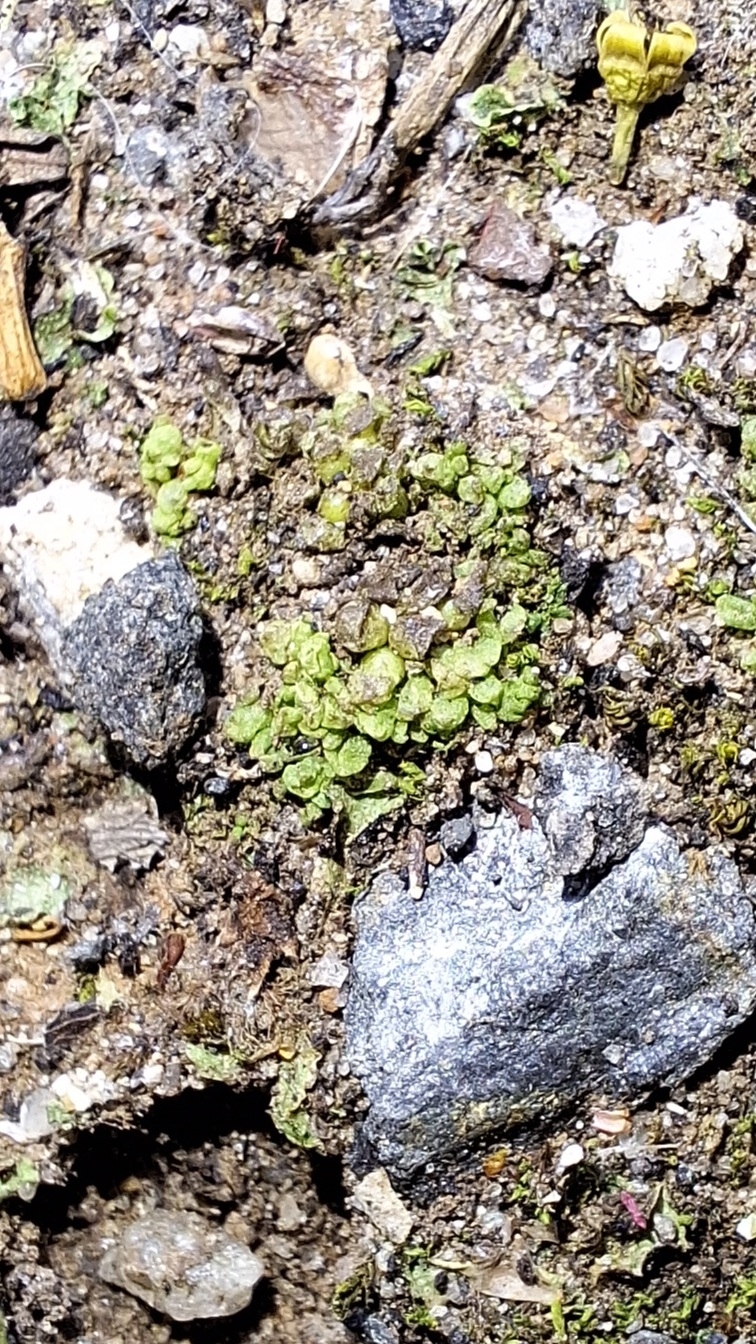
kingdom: Plantae
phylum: Marchantiophyta
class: Marchantiopsida
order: Sphaerocarpales
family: Sphaerocarpaceae
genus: Sphaerocarpos
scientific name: Sphaerocarpos texanus
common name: Texas balloonwort
